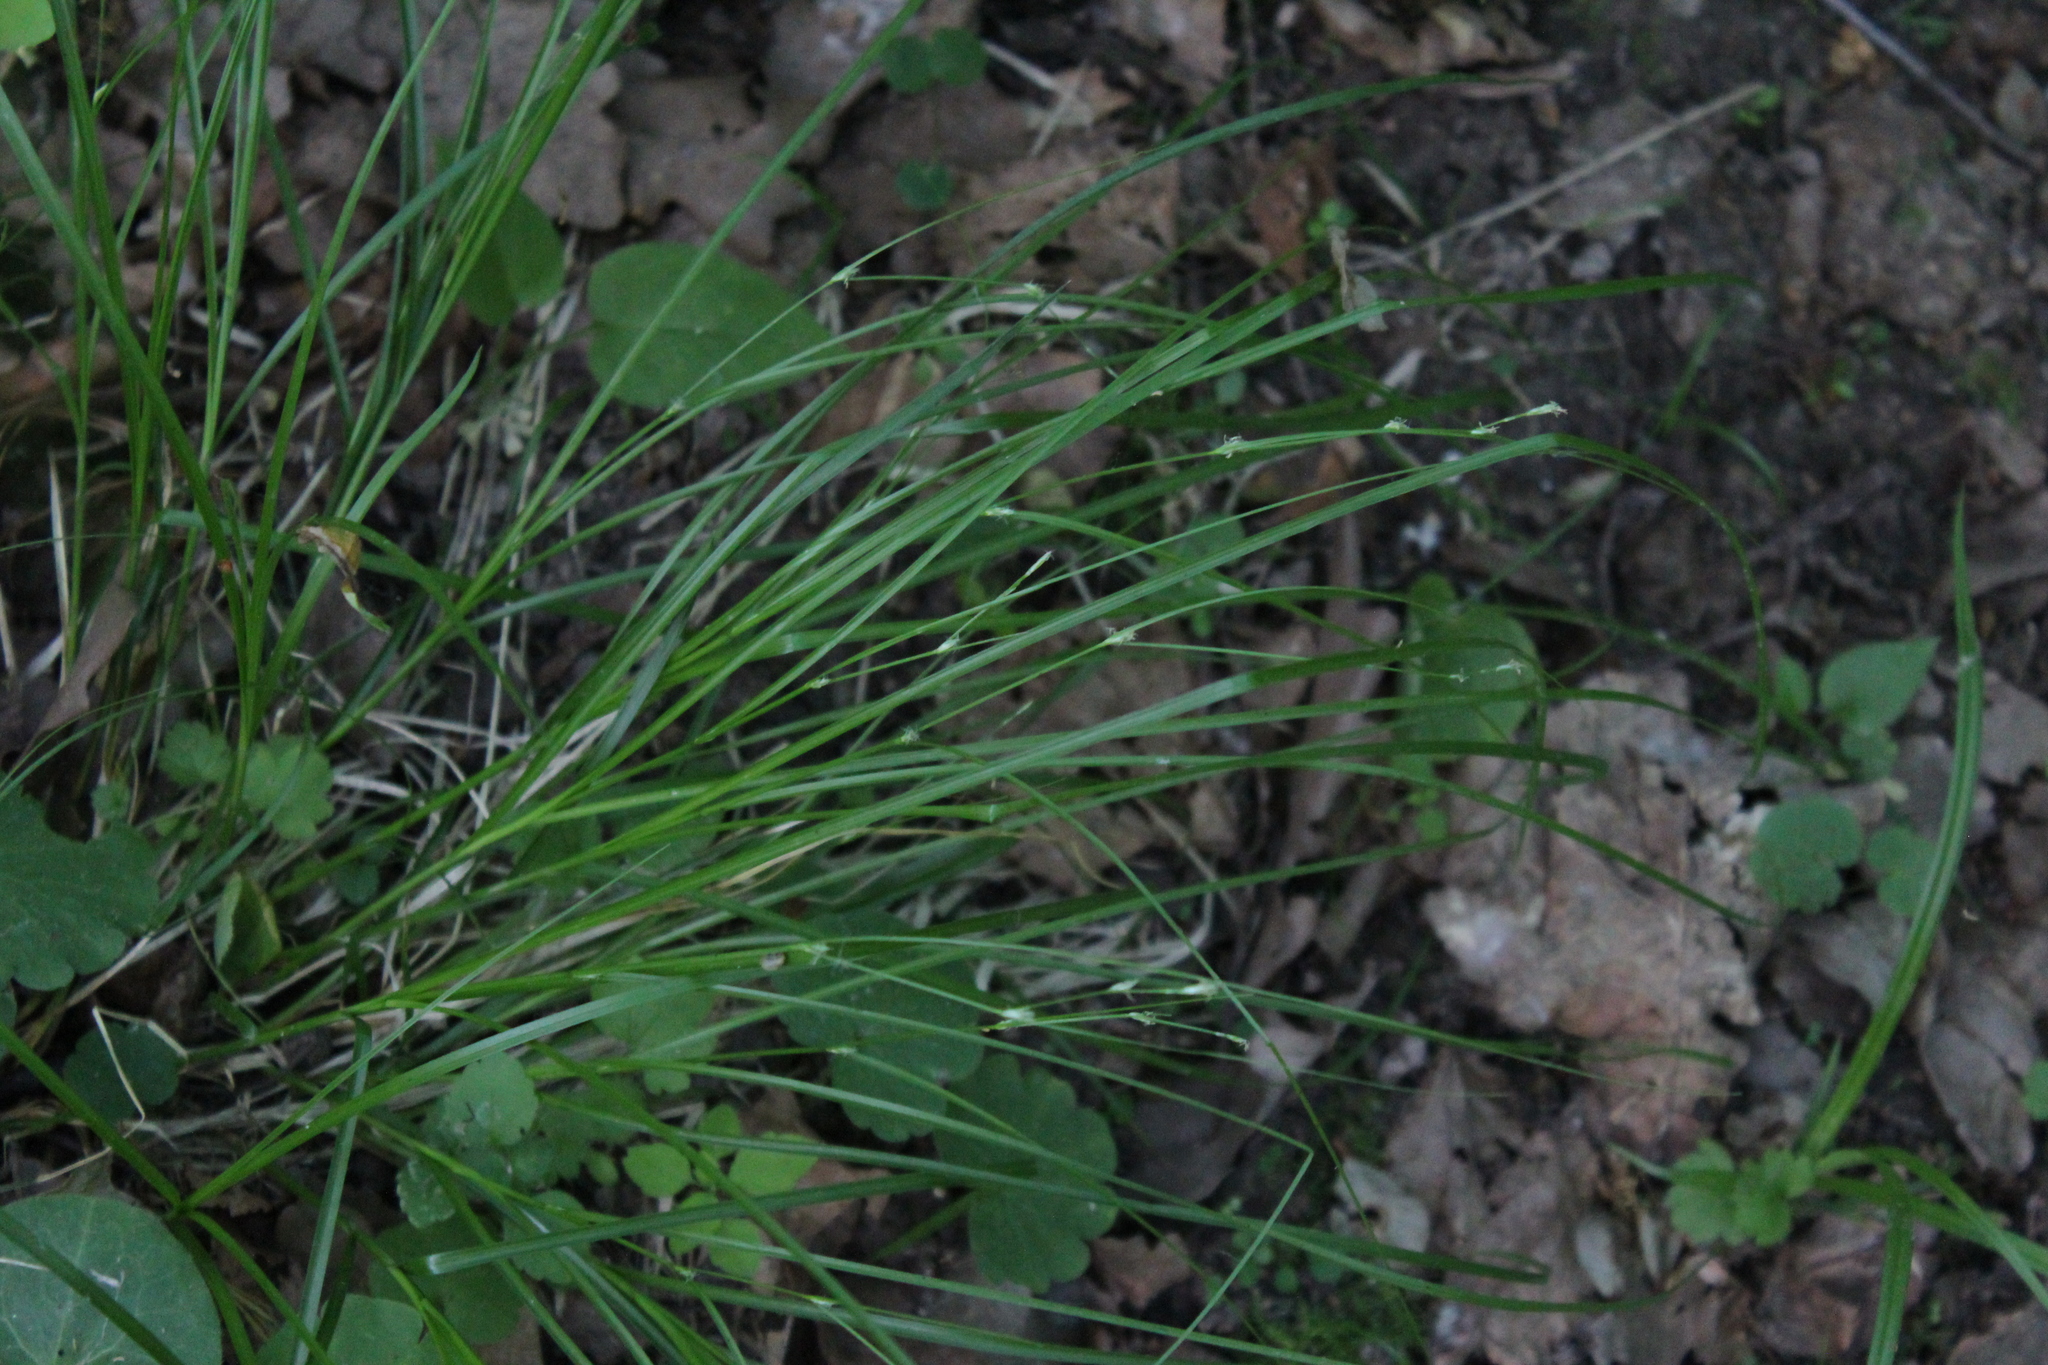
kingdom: Plantae
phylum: Tracheophyta
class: Liliopsida
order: Poales
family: Cyperaceae
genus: Carex
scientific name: Carex remota
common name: Remote sedge
